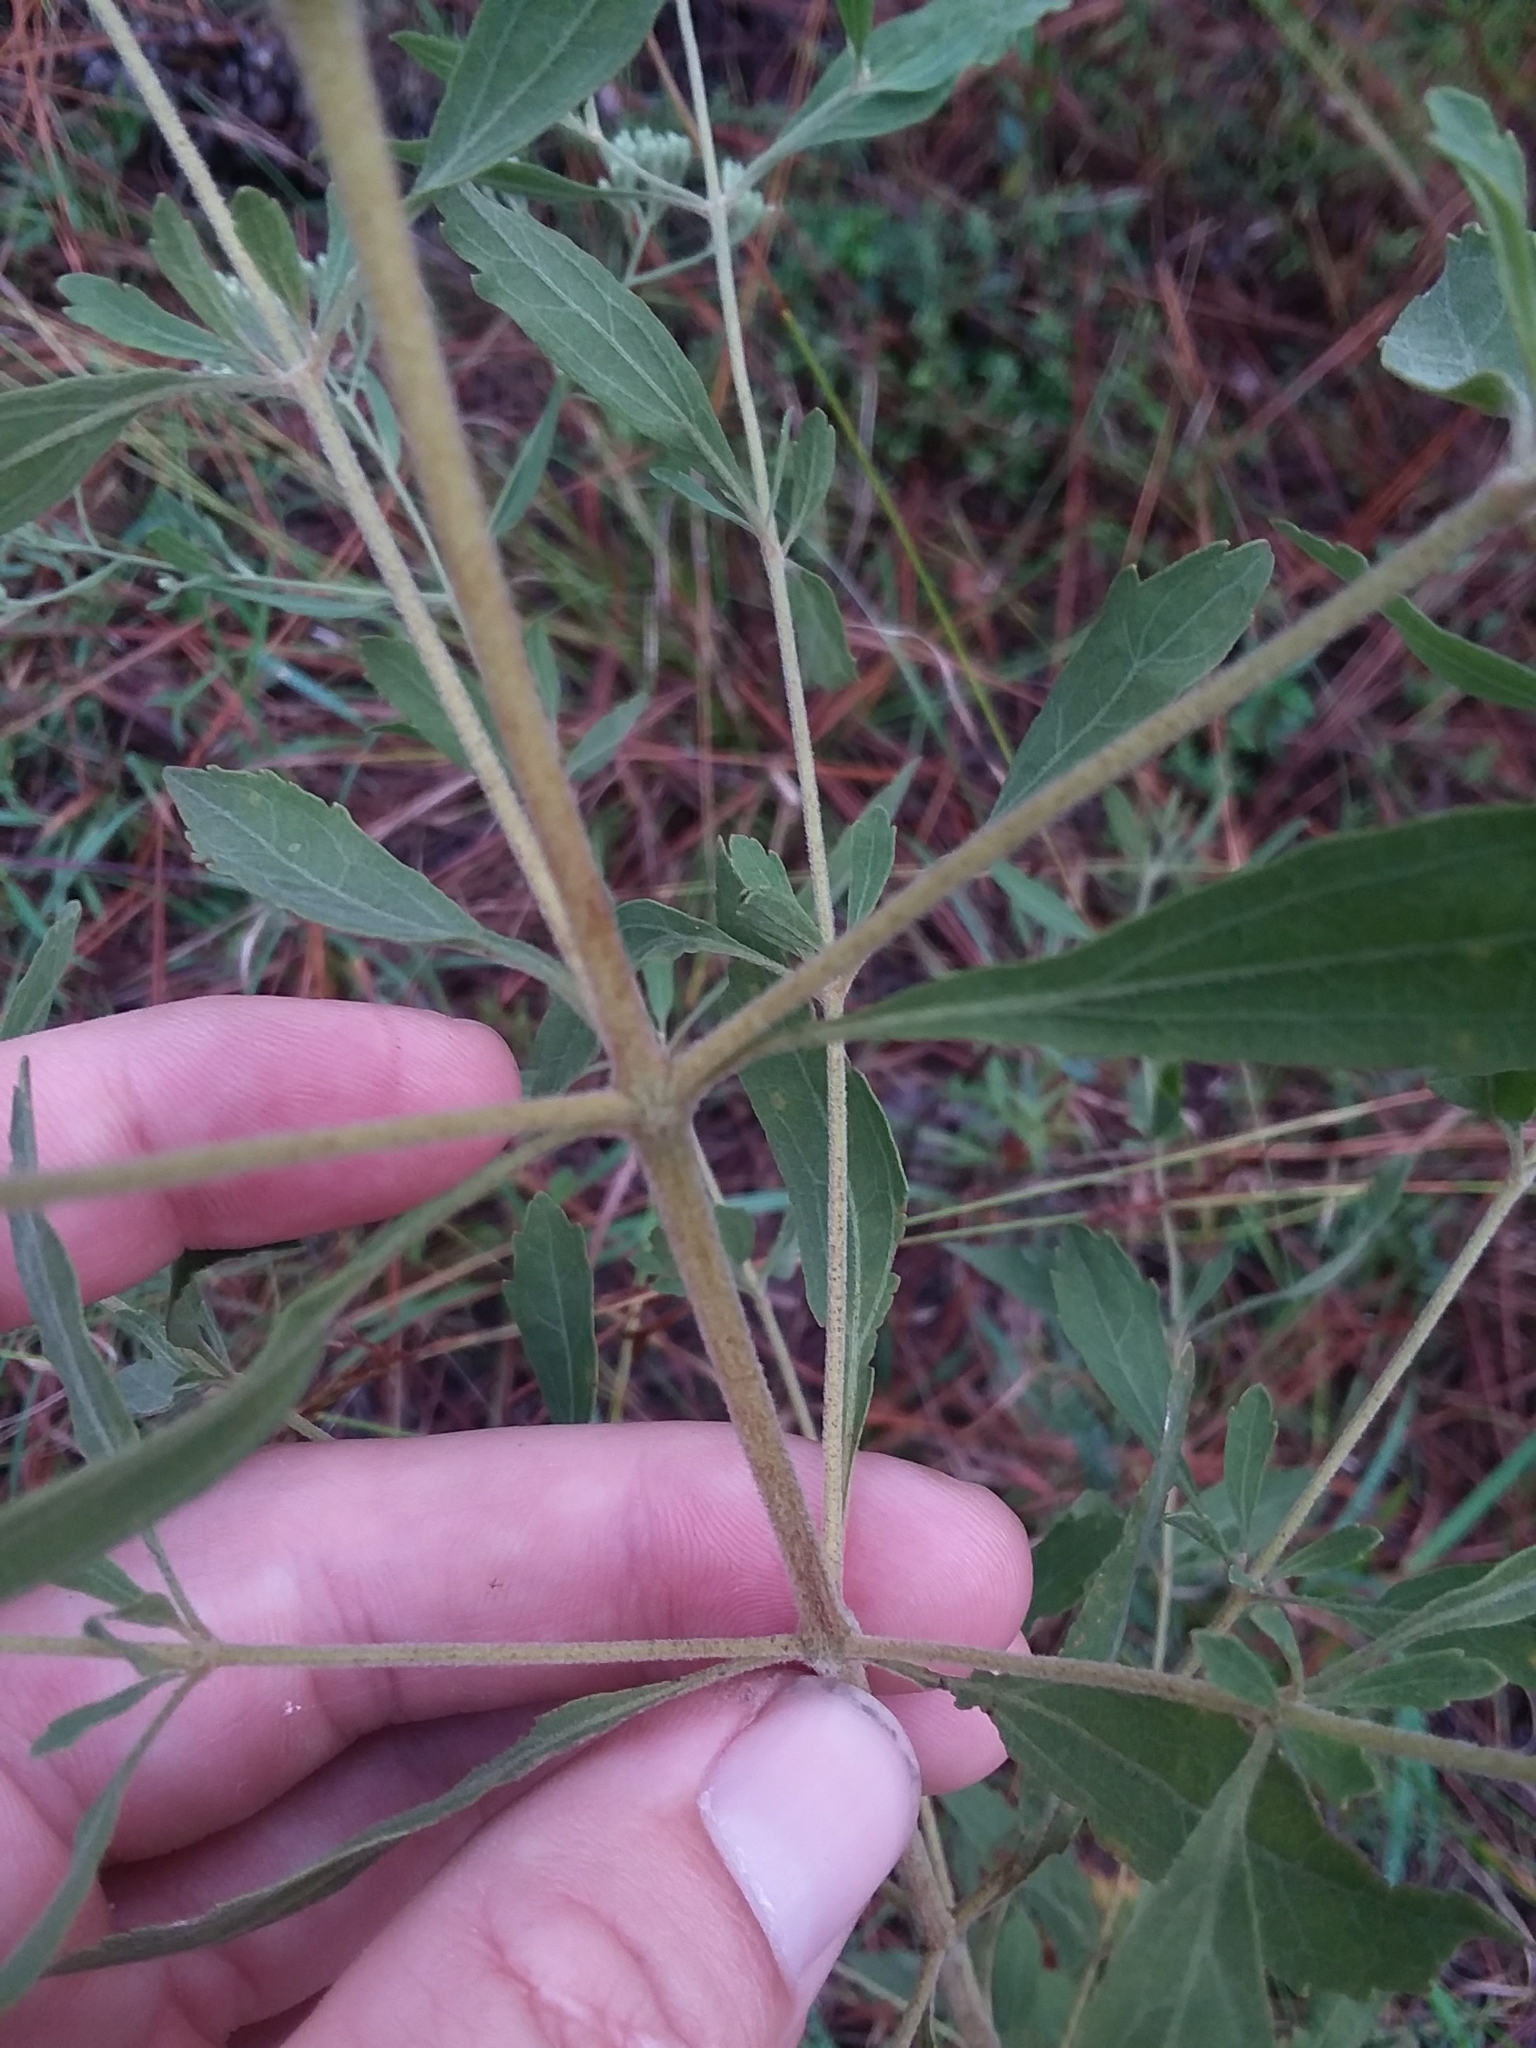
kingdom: Plantae
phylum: Tracheophyta
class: Magnoliopsida
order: Asterales
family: Asteraceae
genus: Eupatorium
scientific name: Eupatorium semiserratum
